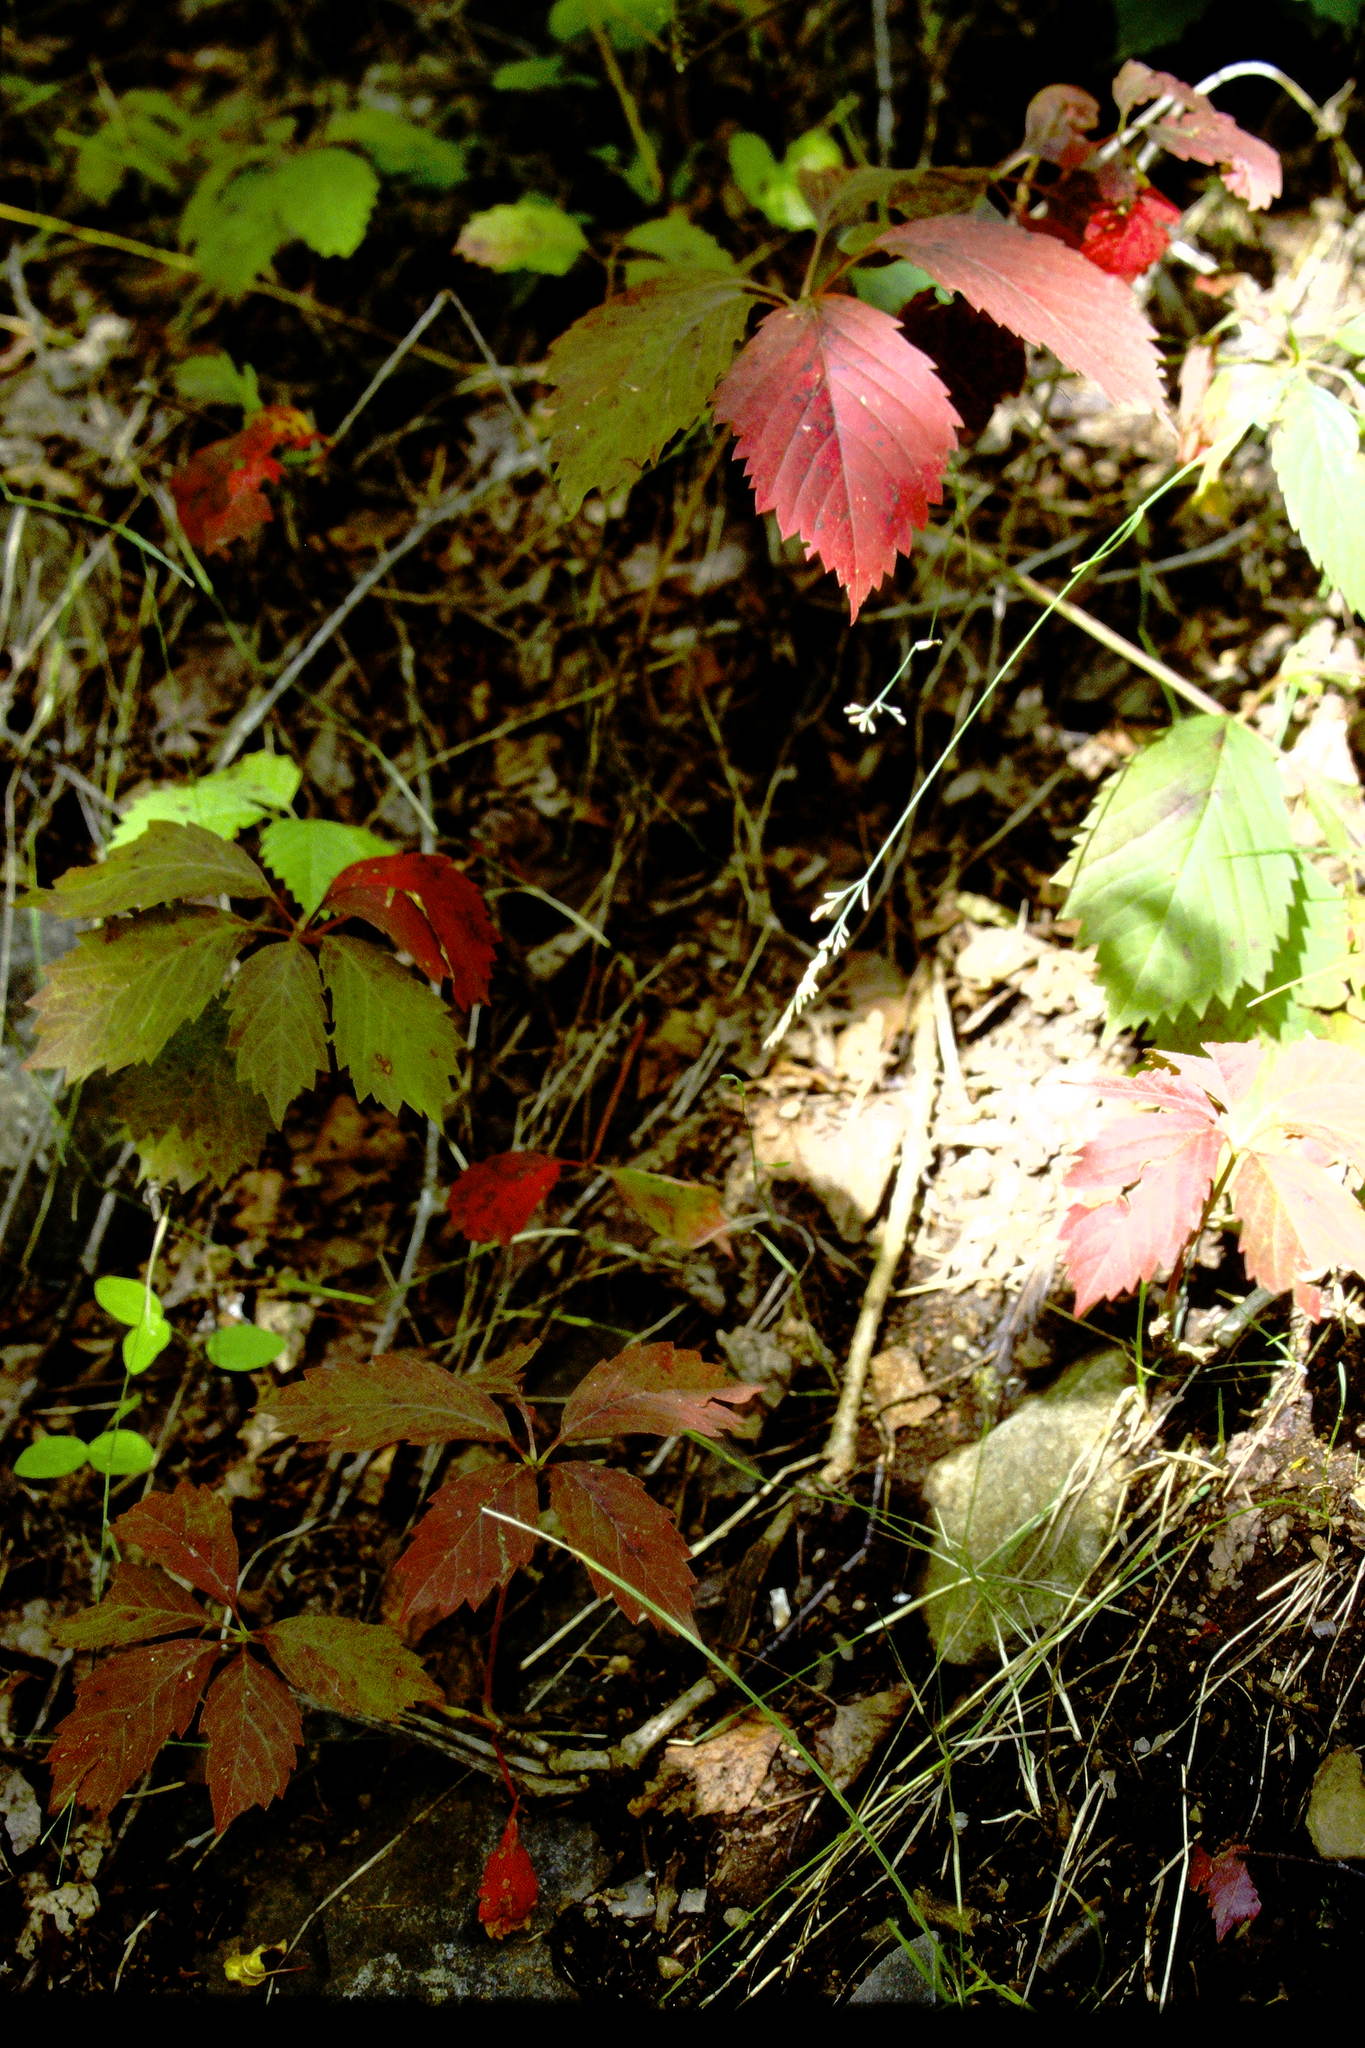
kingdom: Plantae
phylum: Tracheophyta
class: Magnoliopsida
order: Vitales
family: Vitaceae
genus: Parthenocissus
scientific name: Parthenocissus inserta
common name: False virginia-creeper
